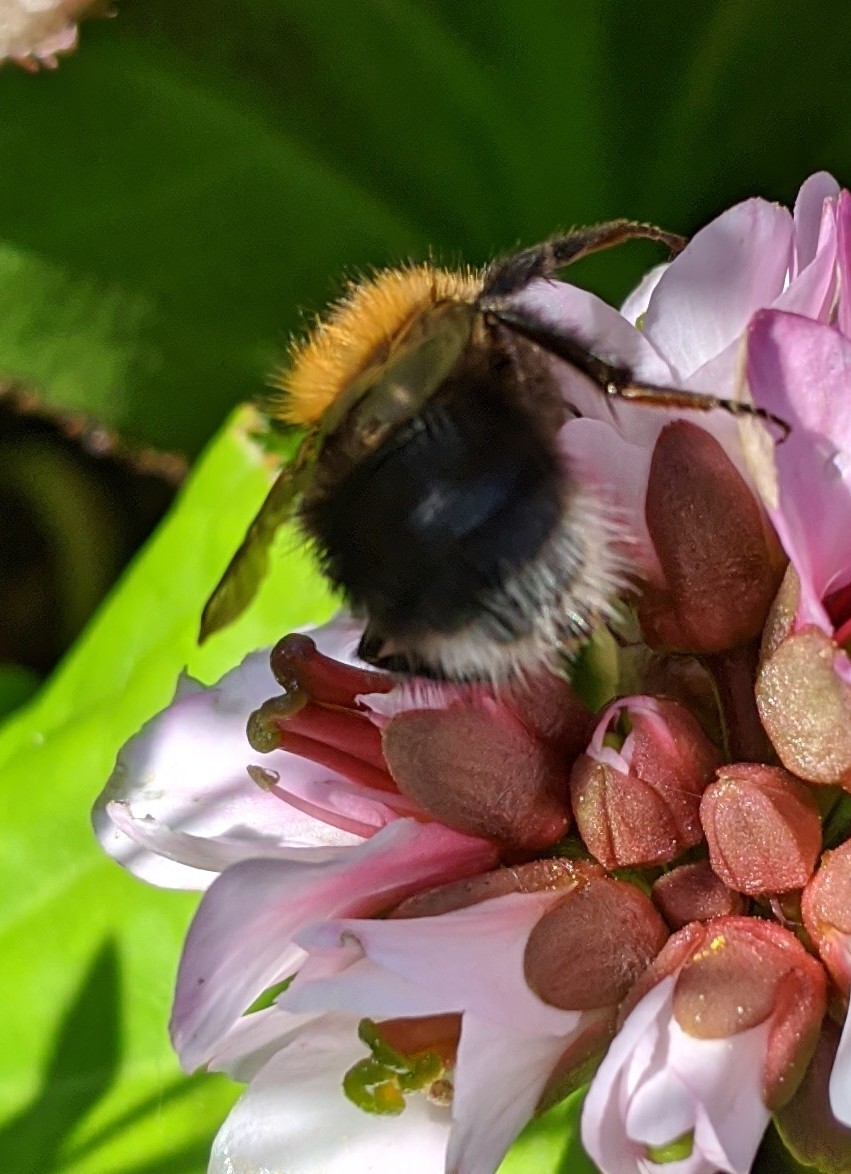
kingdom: Animalia
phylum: Arthropoda
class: Insecta
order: Hymenoptera
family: Apidae
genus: Bombus
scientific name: Bombus hypnorum
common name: New garden bumblebee
